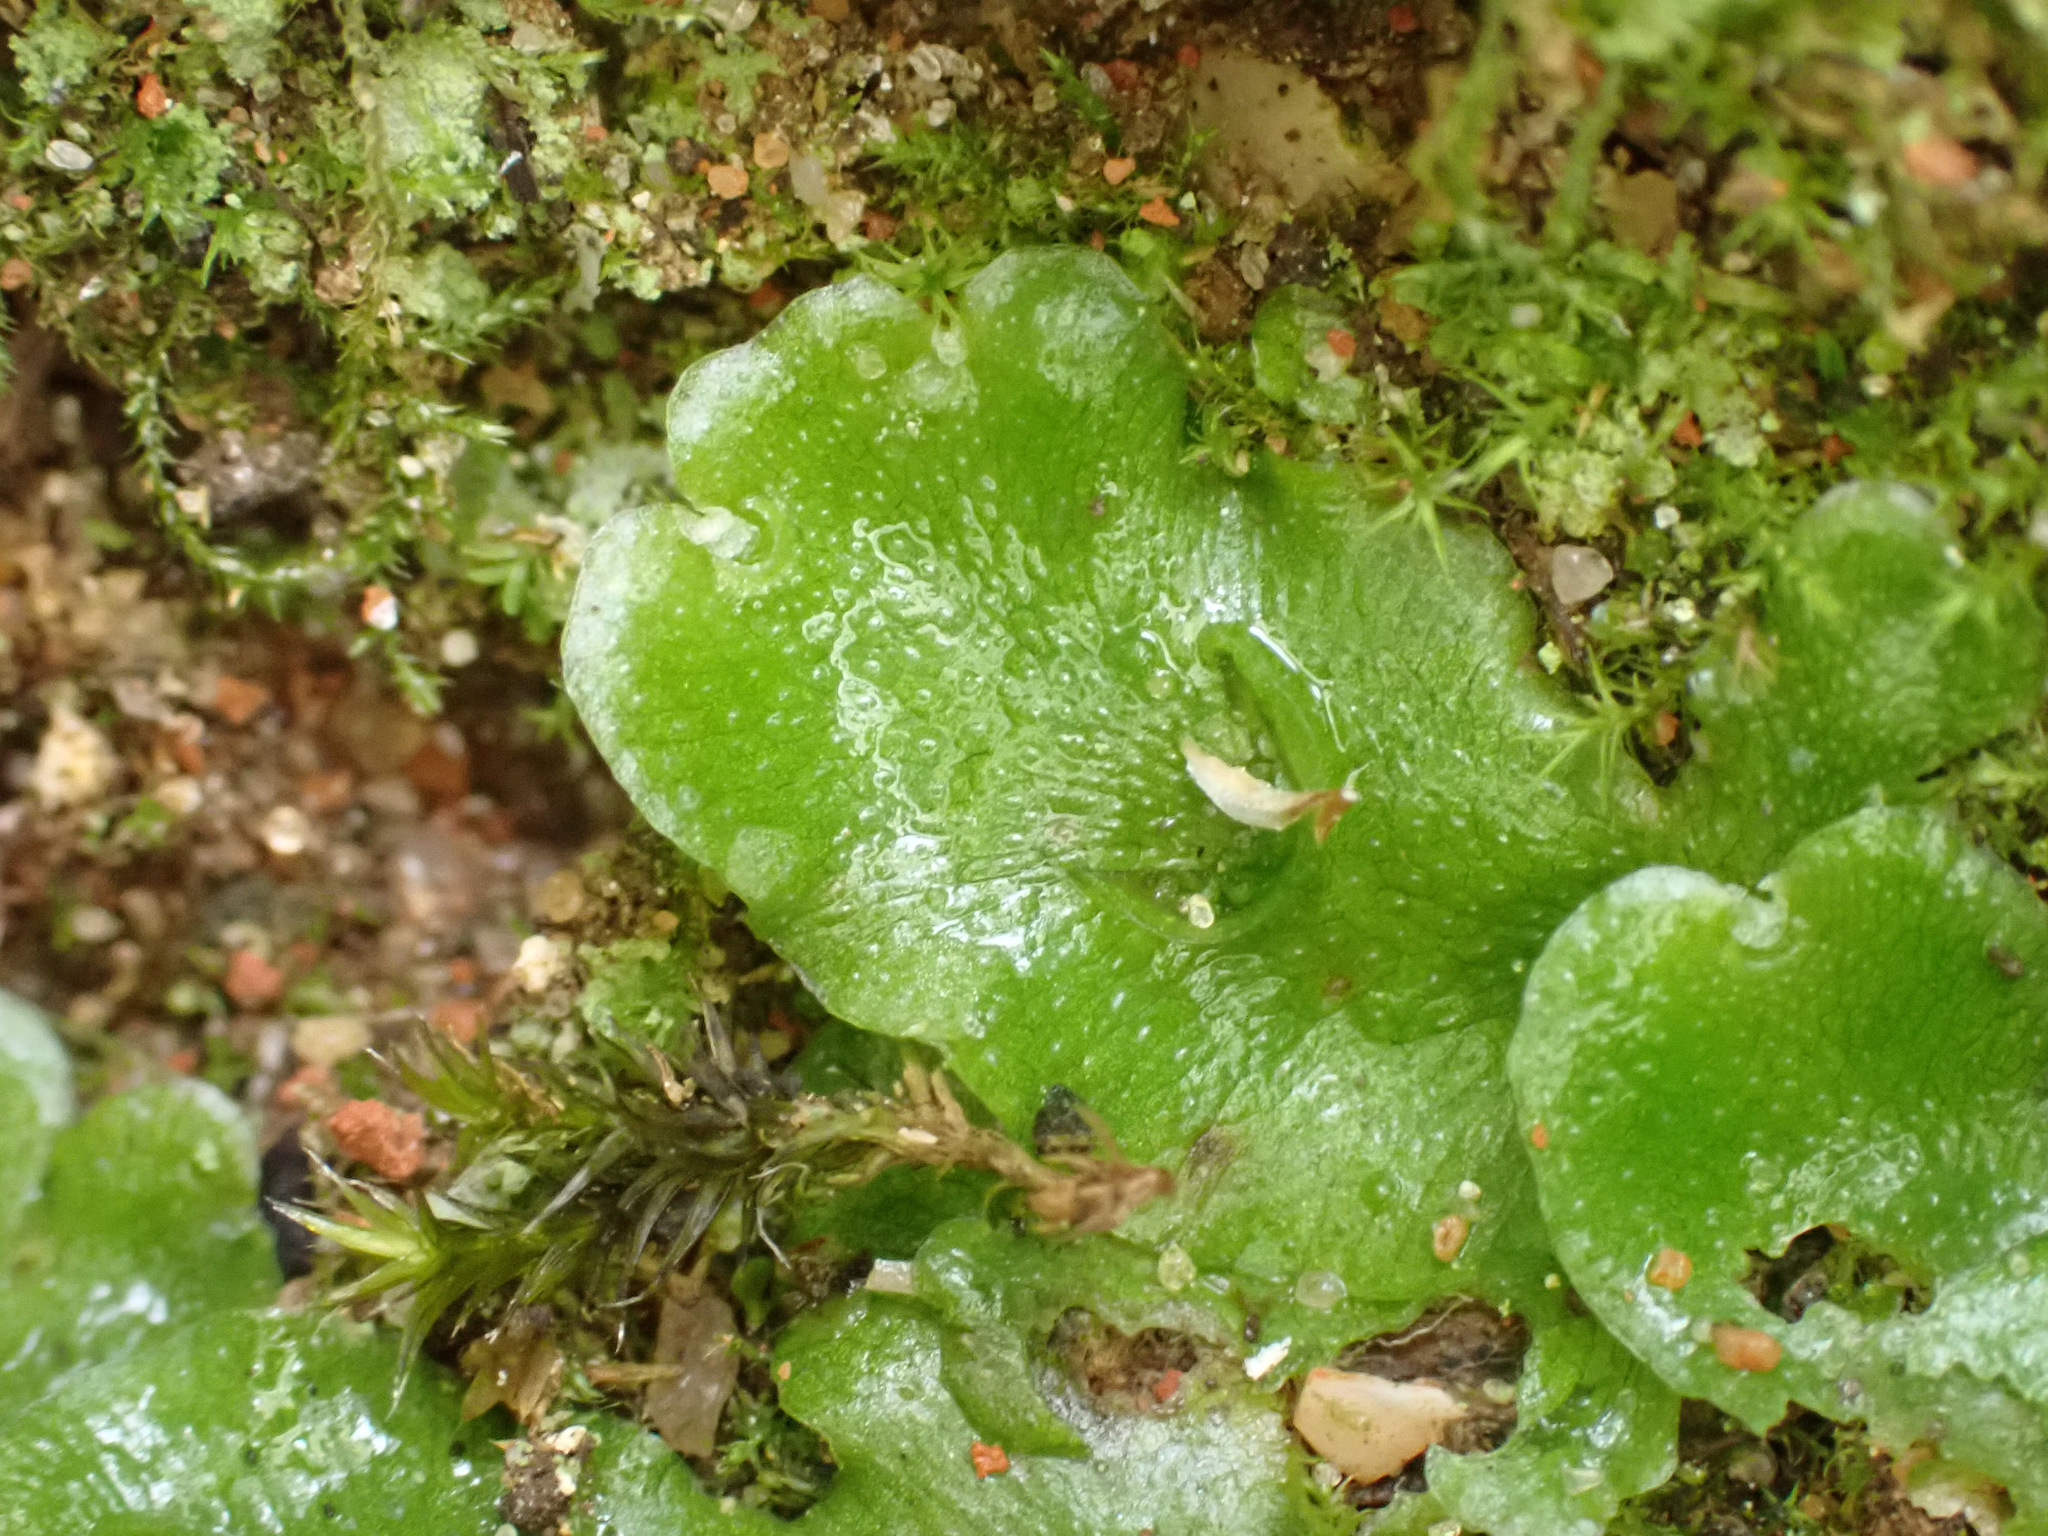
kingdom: Plantae
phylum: Marchantiophyta
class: Marchantiopsida
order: Lunulariales
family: Lunulariaceae
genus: Lunularia
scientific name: Lunularia cruciata
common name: Crescent-cup liverwort
